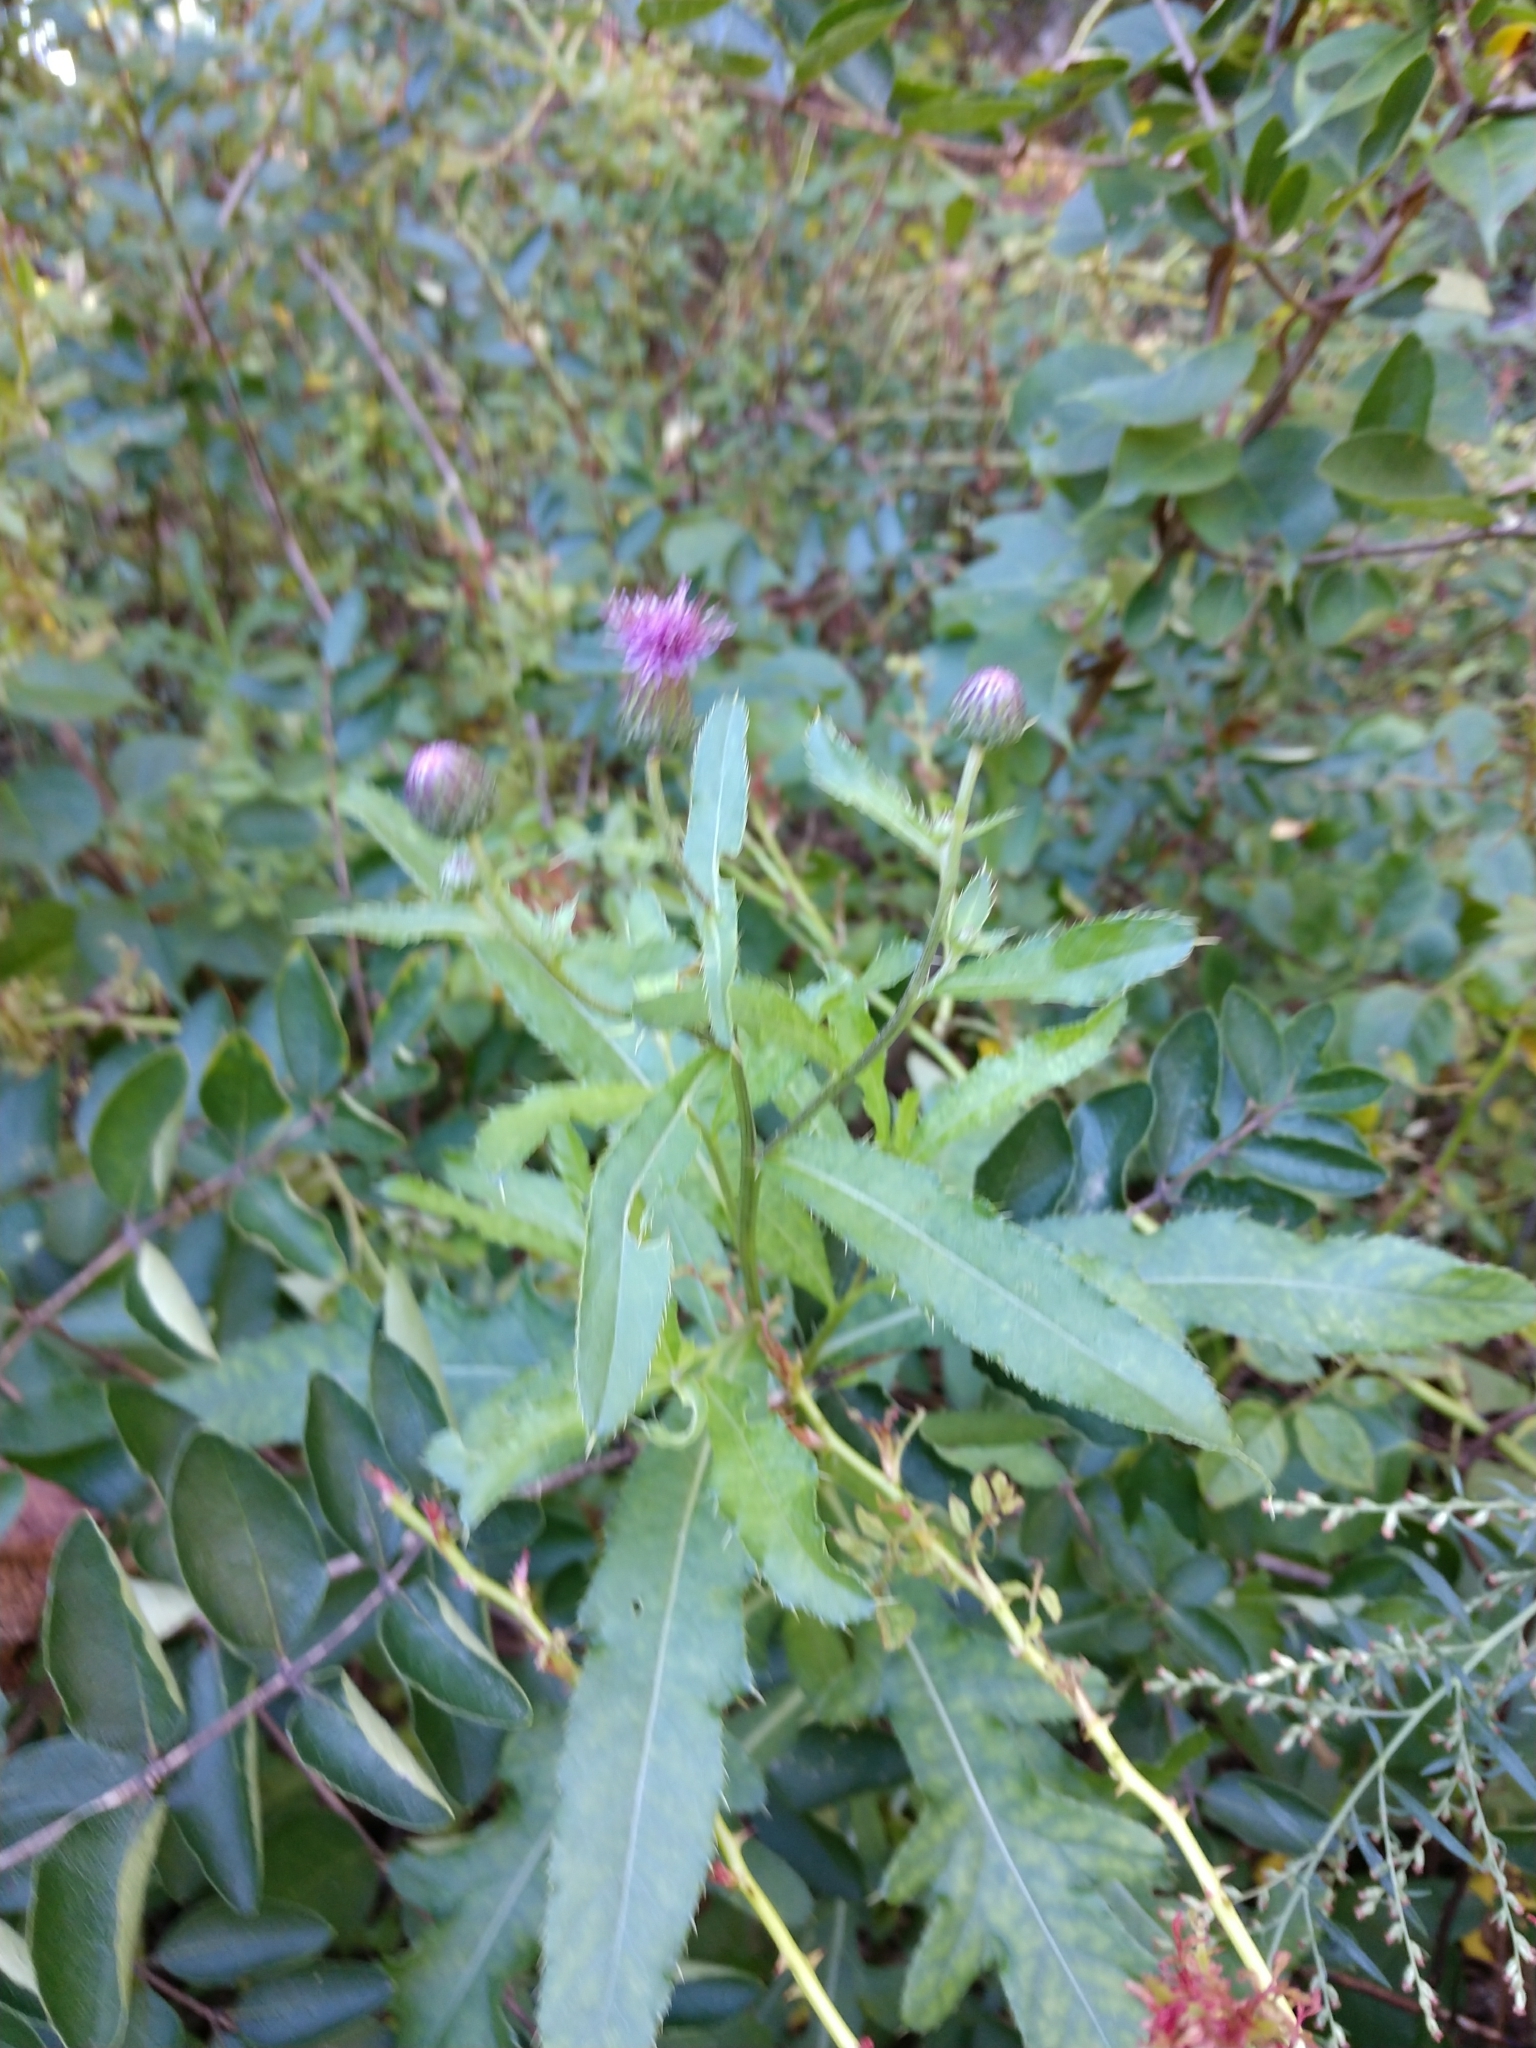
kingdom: Plantae
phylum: Tracheophyta
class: Magnoliopsida
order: Asterales
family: Asteraceae
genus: Cirsium
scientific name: Cirsium arvense
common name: Creeping thistle
